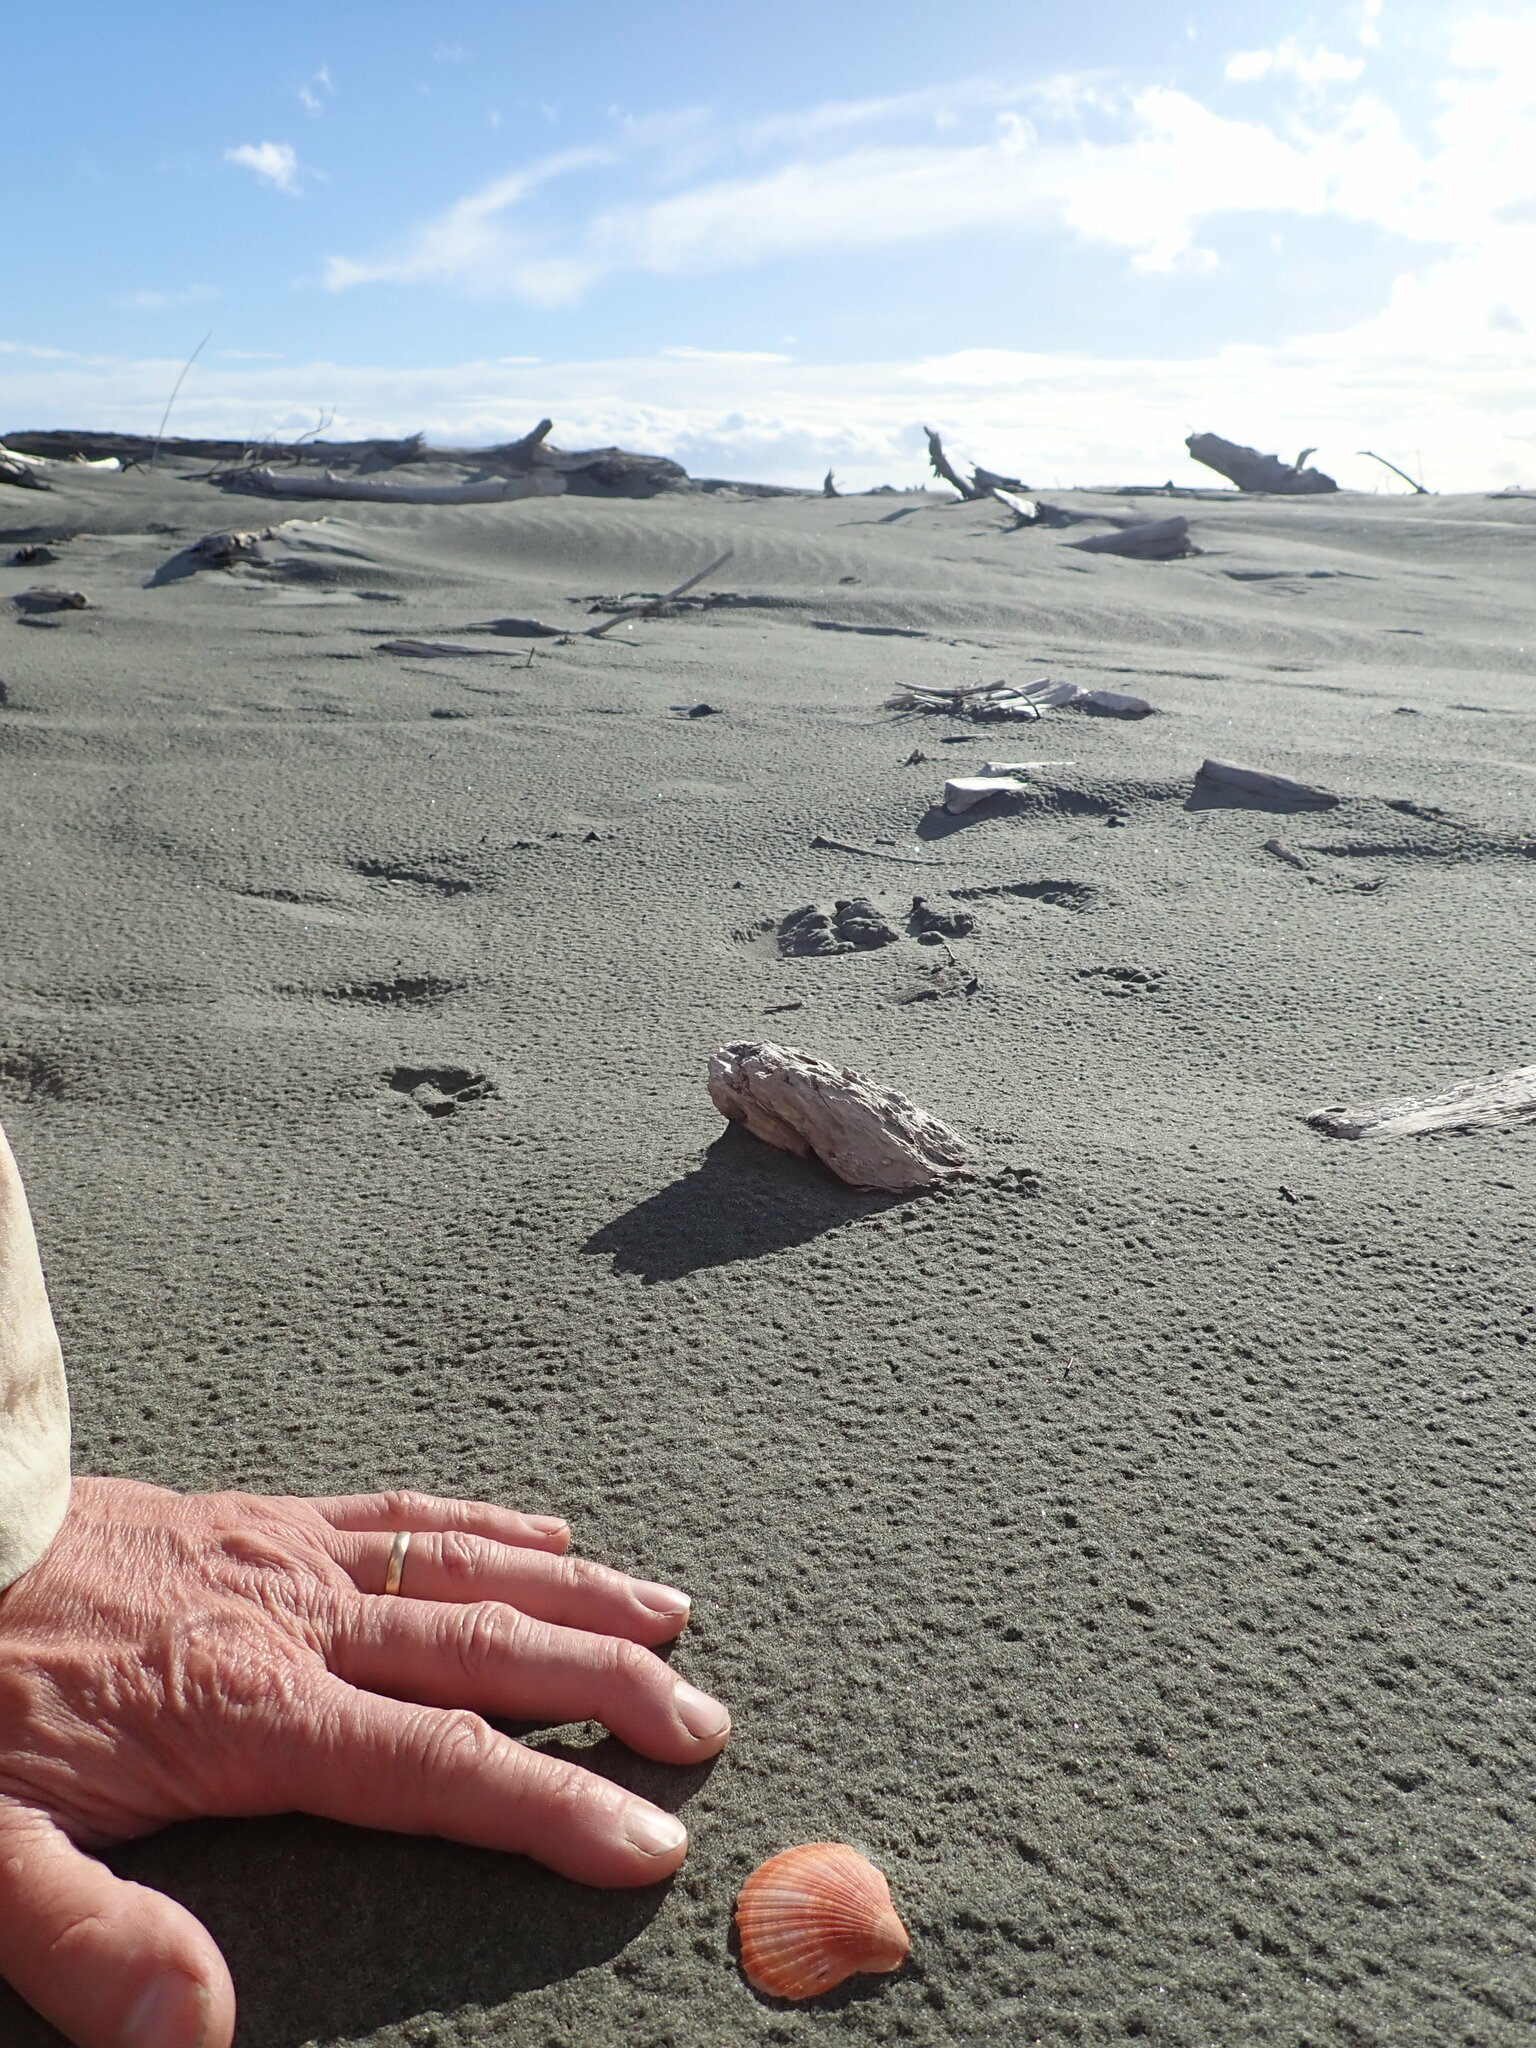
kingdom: Animalia
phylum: Mollusca
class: Bivalvia
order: Pectinida
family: Pectinidae
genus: Talochlamys
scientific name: Talochlamys zelandiae
